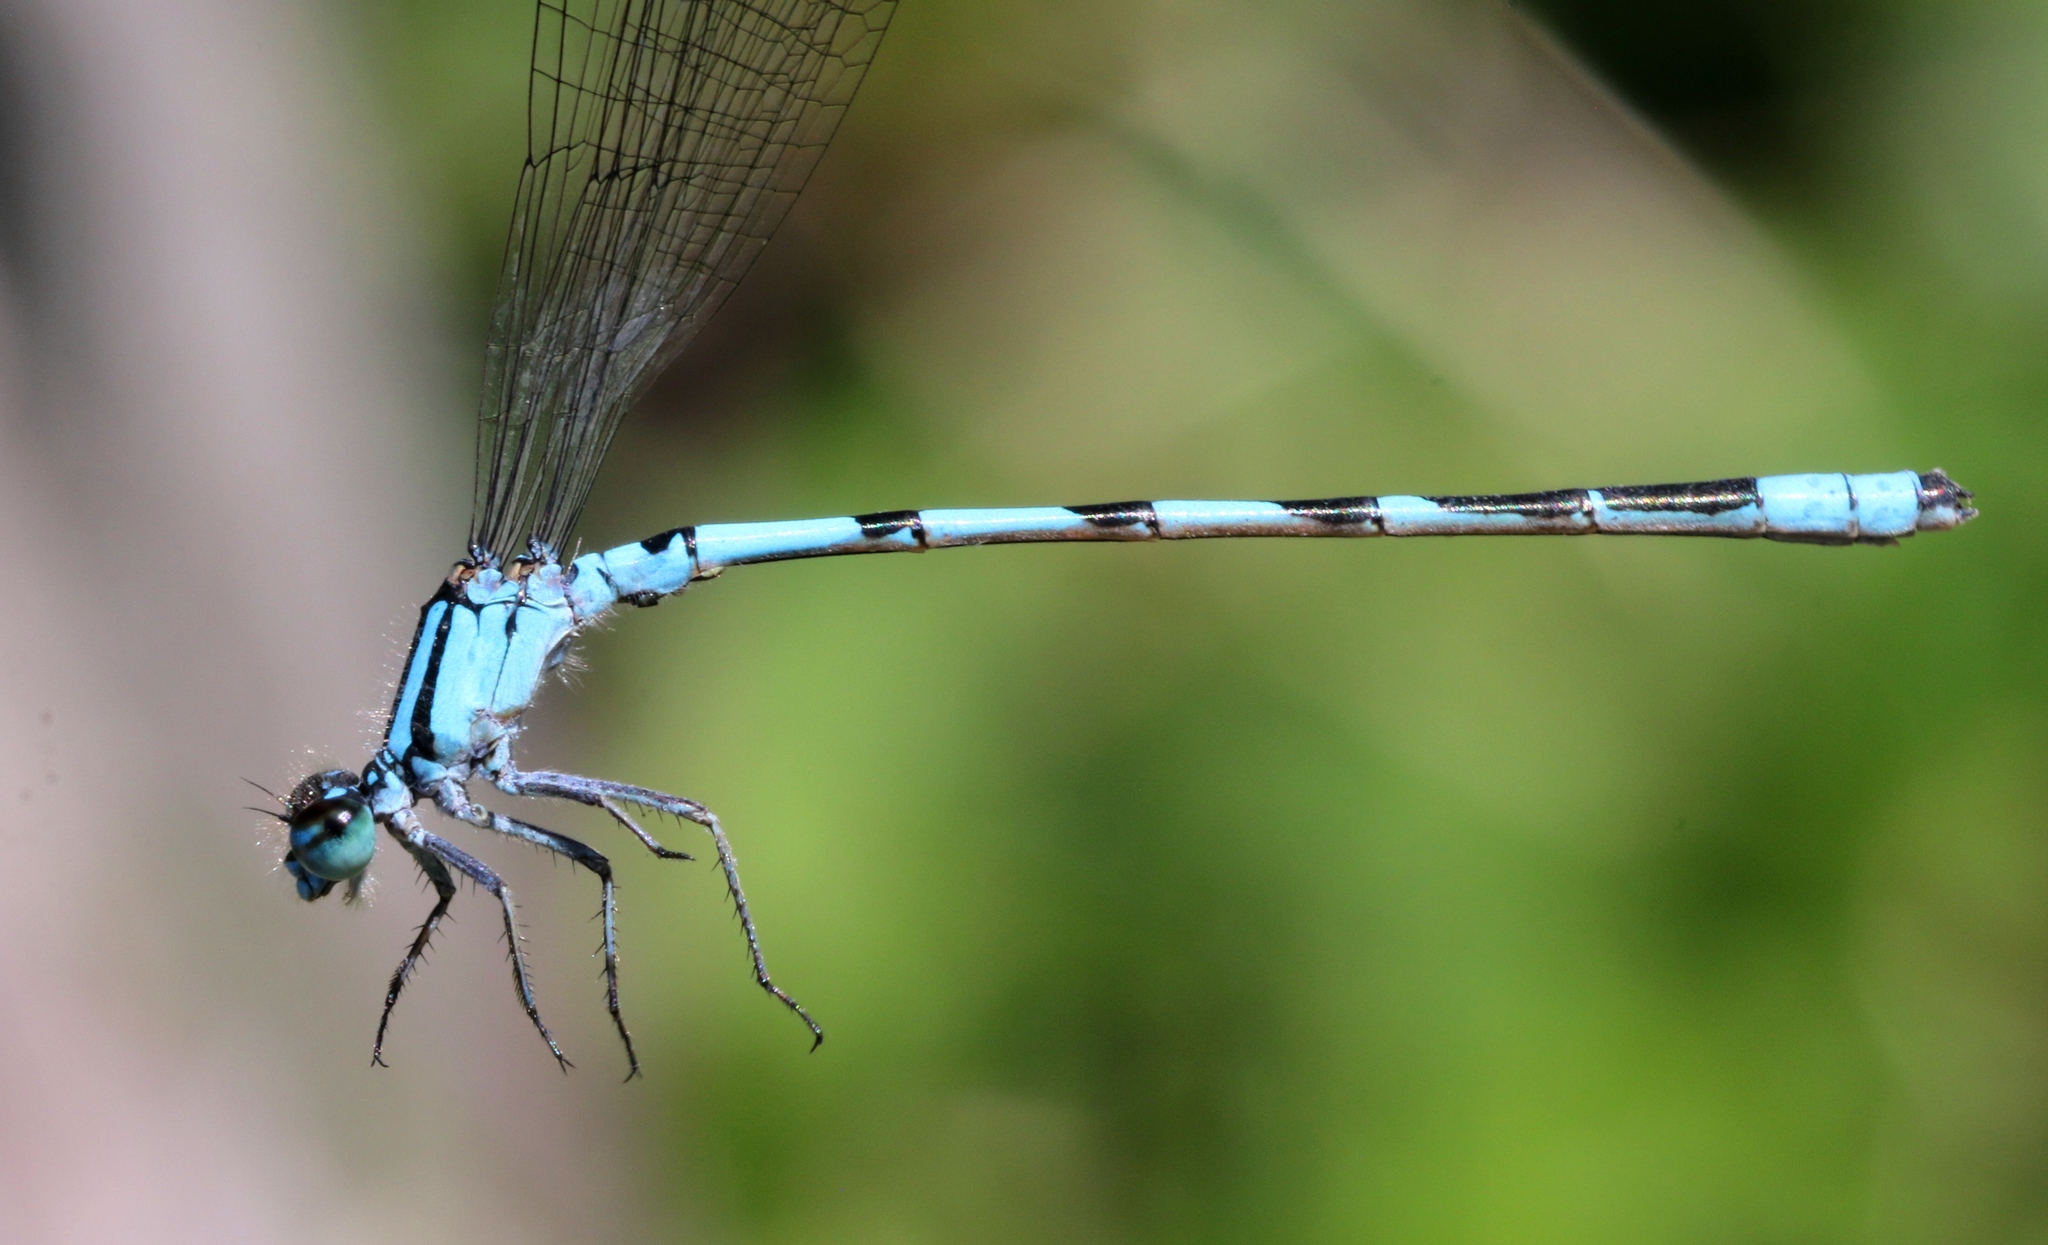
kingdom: Animalia
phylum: Arthropoda
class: Insecta
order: Odonata
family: Coenagrionidae
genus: Enallagma
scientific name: Enallagma hageni
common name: Hagen's bluet
